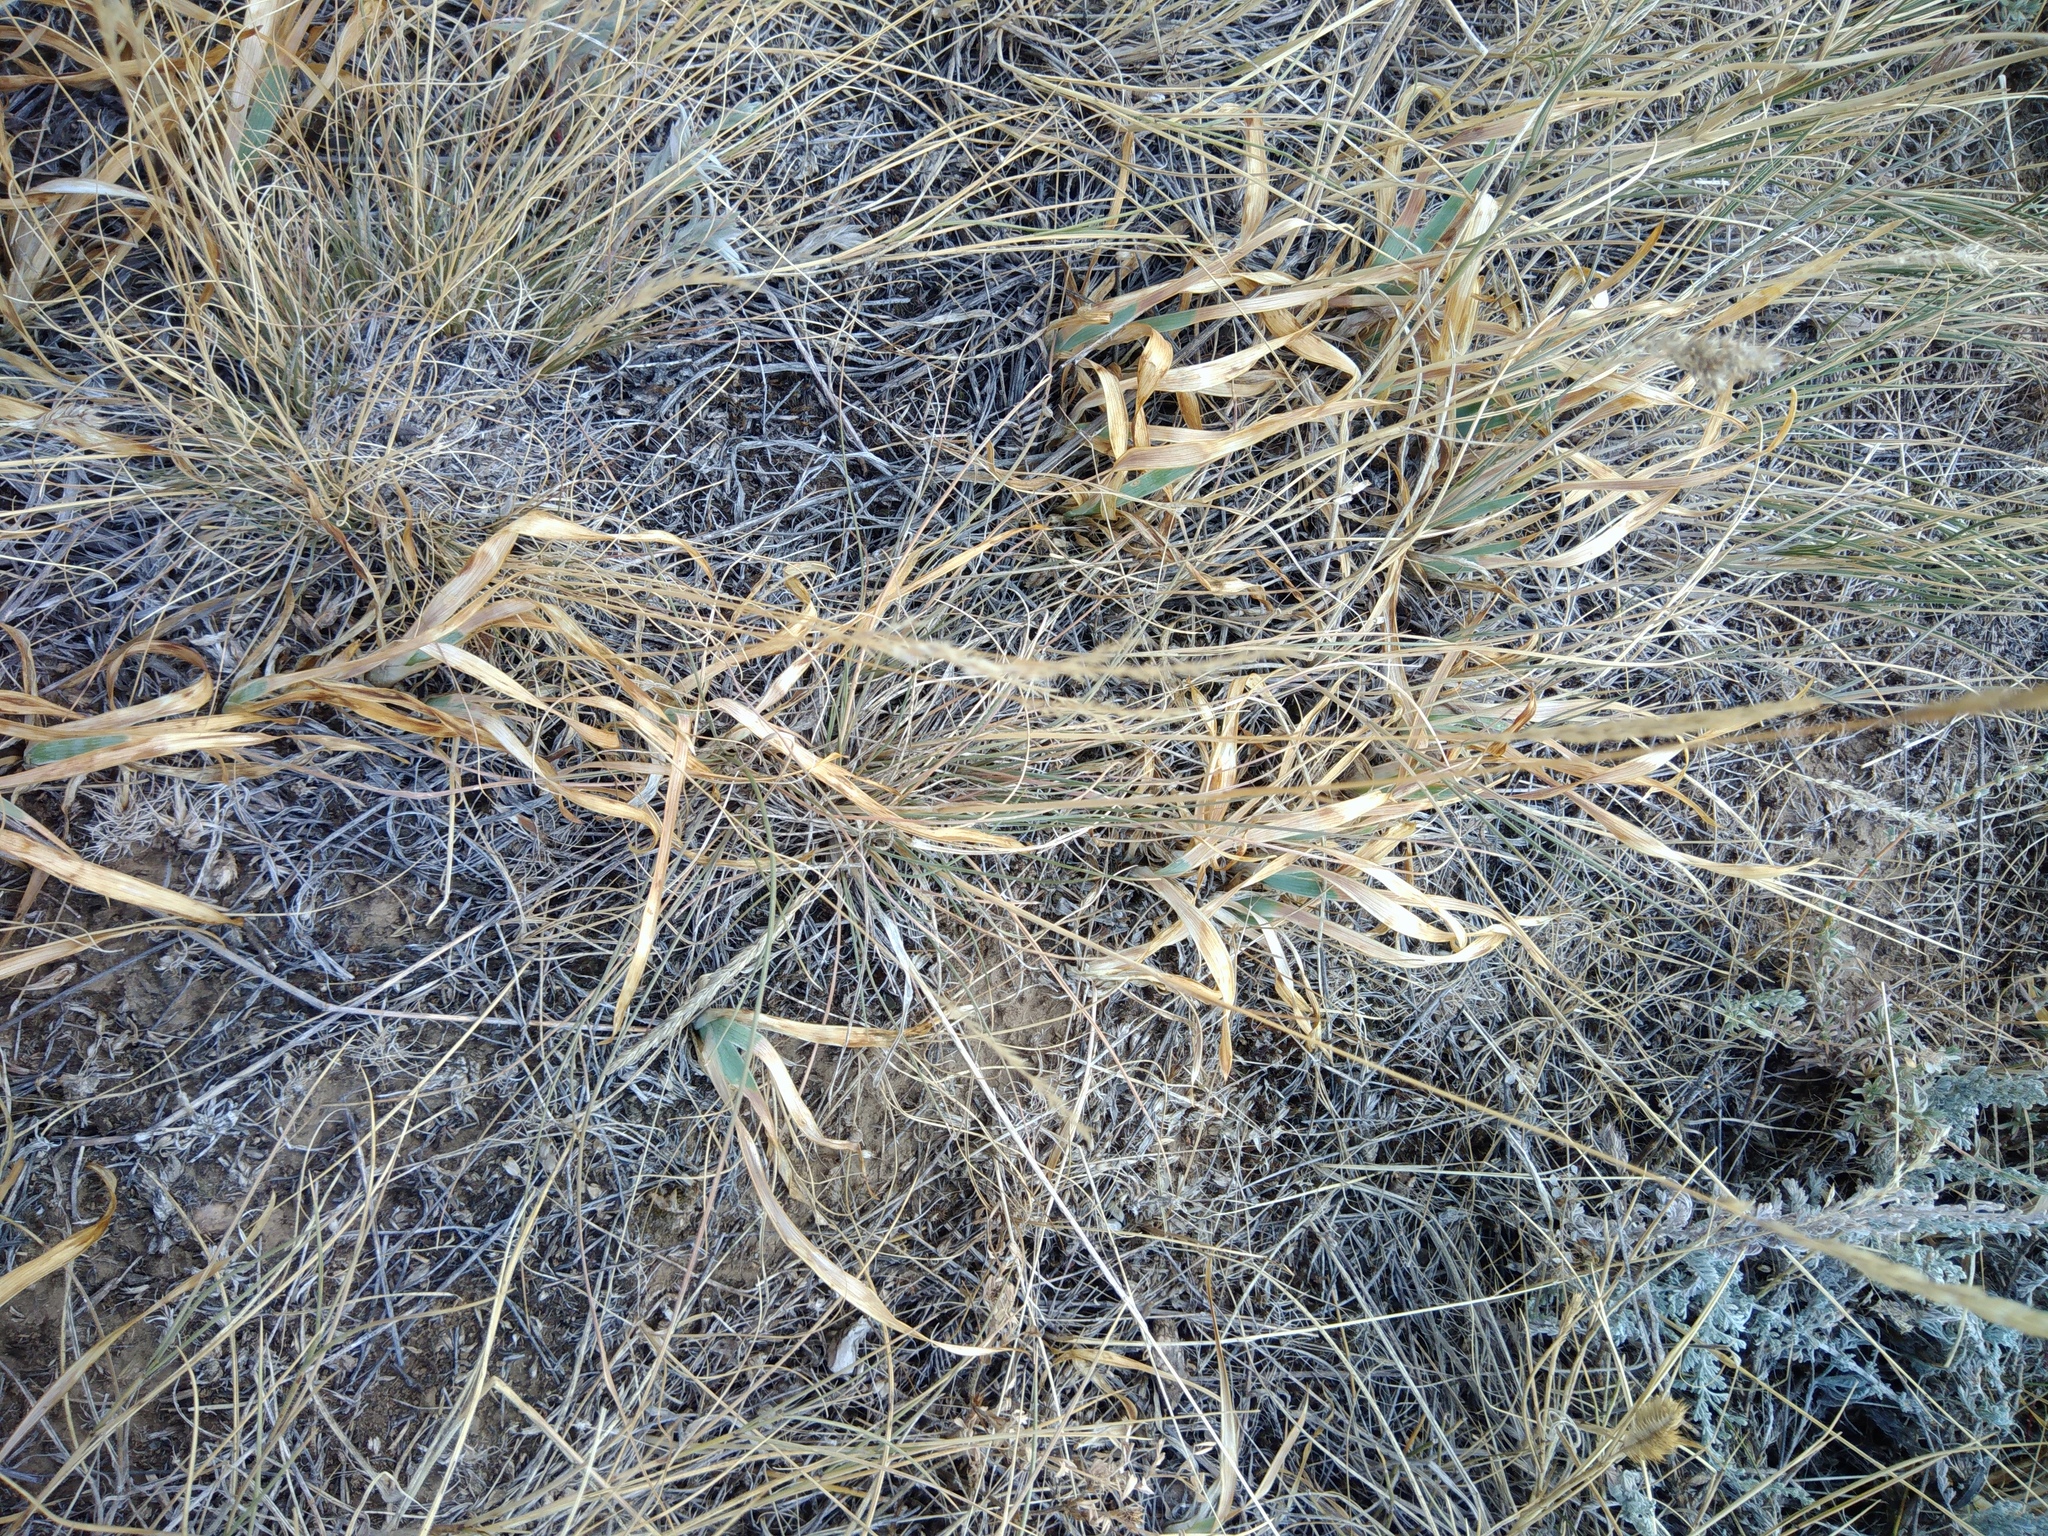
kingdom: Plantae
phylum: Tracheophyta
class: Liliopsida
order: Asparagales
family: Iridaceae
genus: Iris
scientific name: Iris pumila
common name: Dwarf iris
